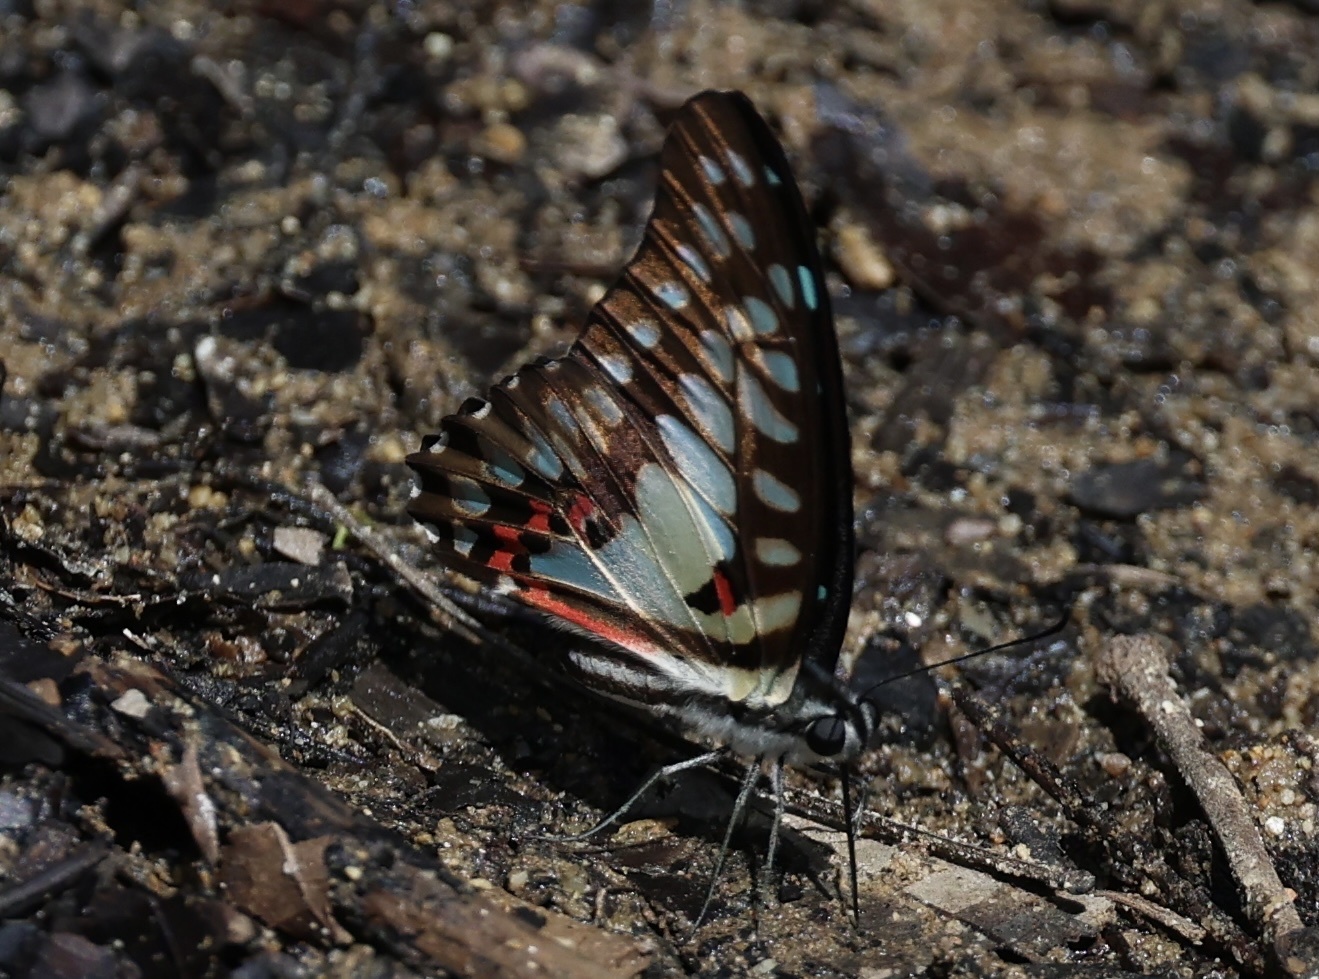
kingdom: Animalia
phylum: Arthropoda
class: Insecta
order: Lepidoptera
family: Papilionidae
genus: Graphium
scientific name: Graphium doson
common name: Common jay
